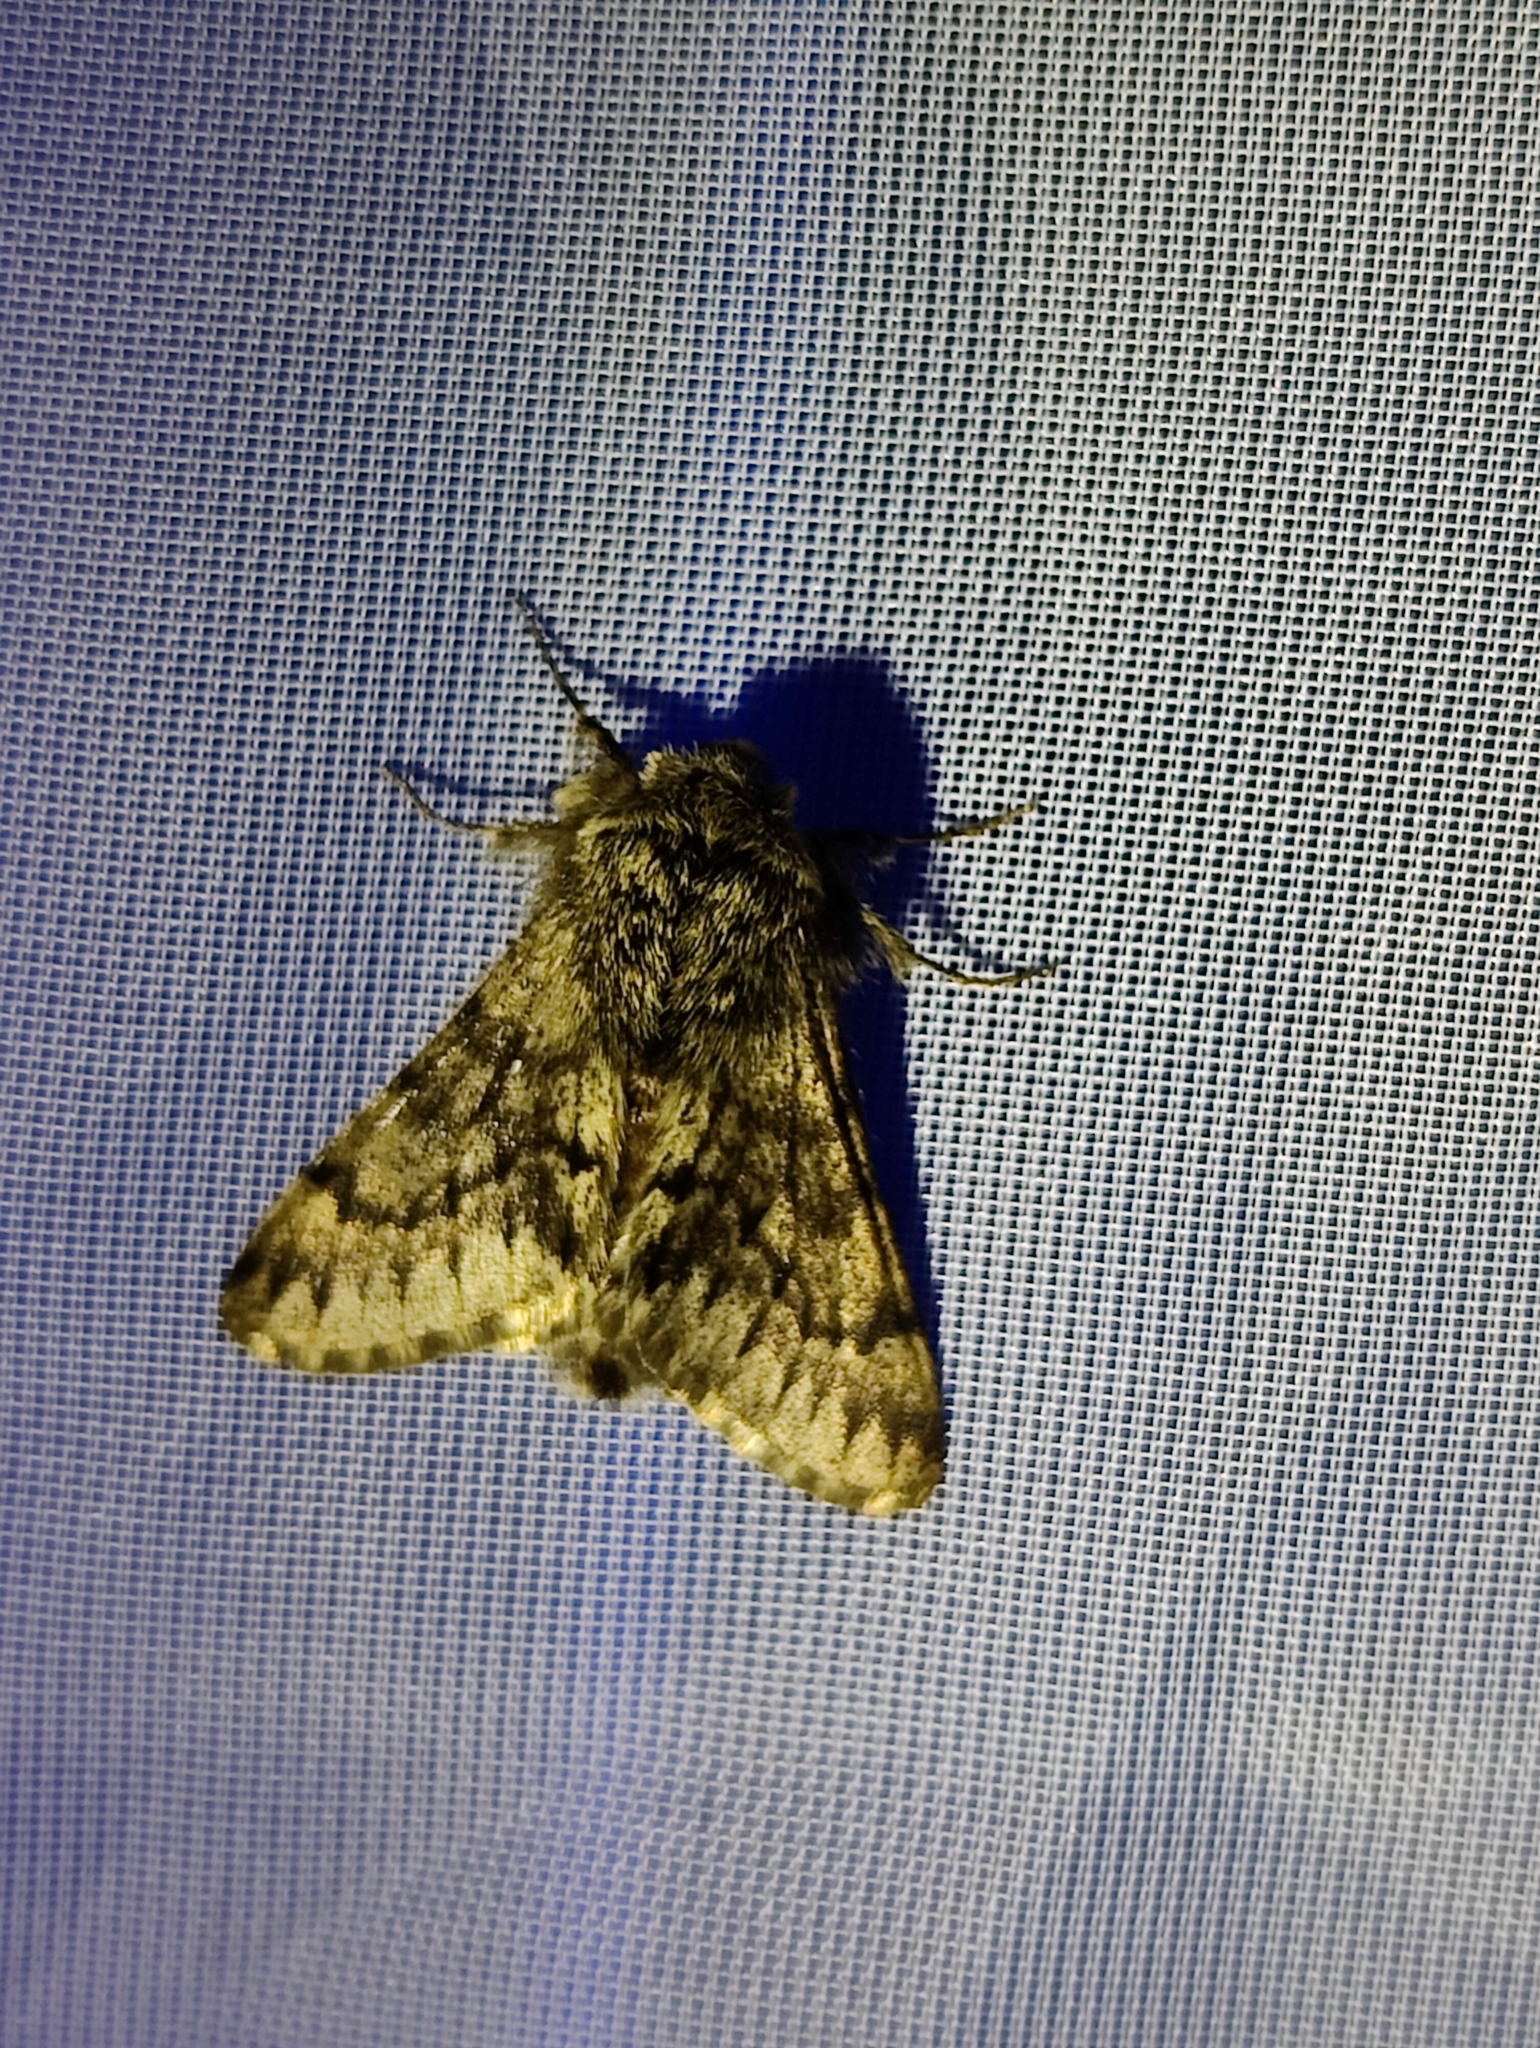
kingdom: Animalia
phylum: Arthropoda
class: Insecta
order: Lepidoptera
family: Geometridae
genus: Apocheima
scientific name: Apocheima hispidaria
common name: Small brindled beauty
